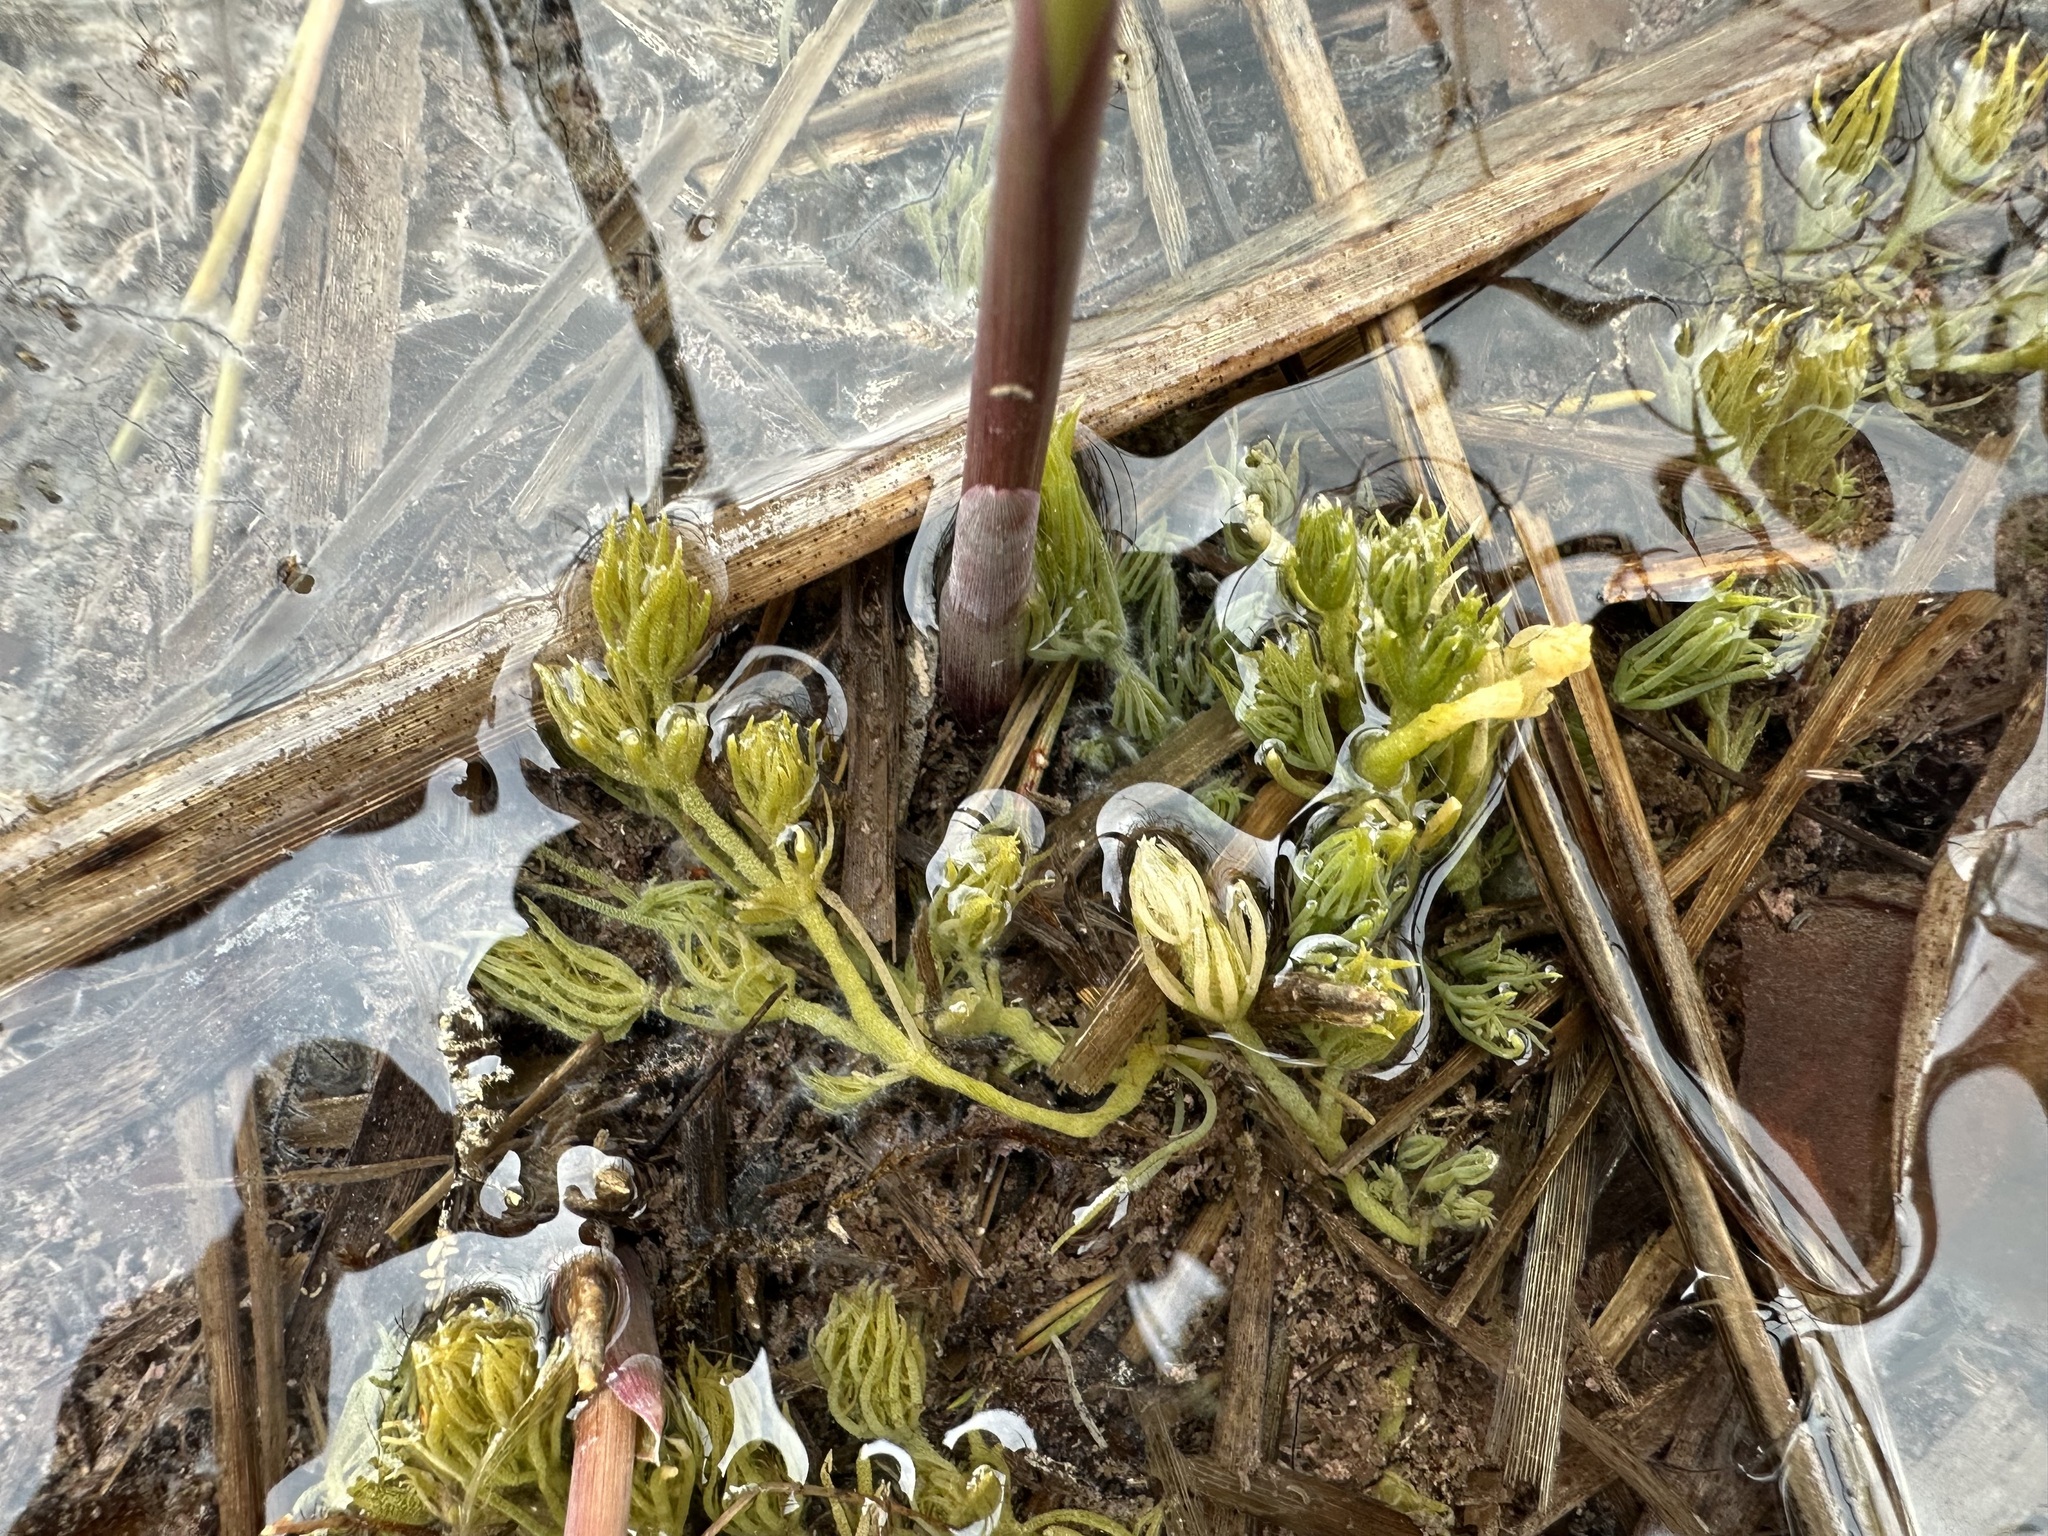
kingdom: Plantae
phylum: Charophyta
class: Charophyceae
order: Charales
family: Characeae
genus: Chara
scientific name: Chara hispida
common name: Bristly stonewort
